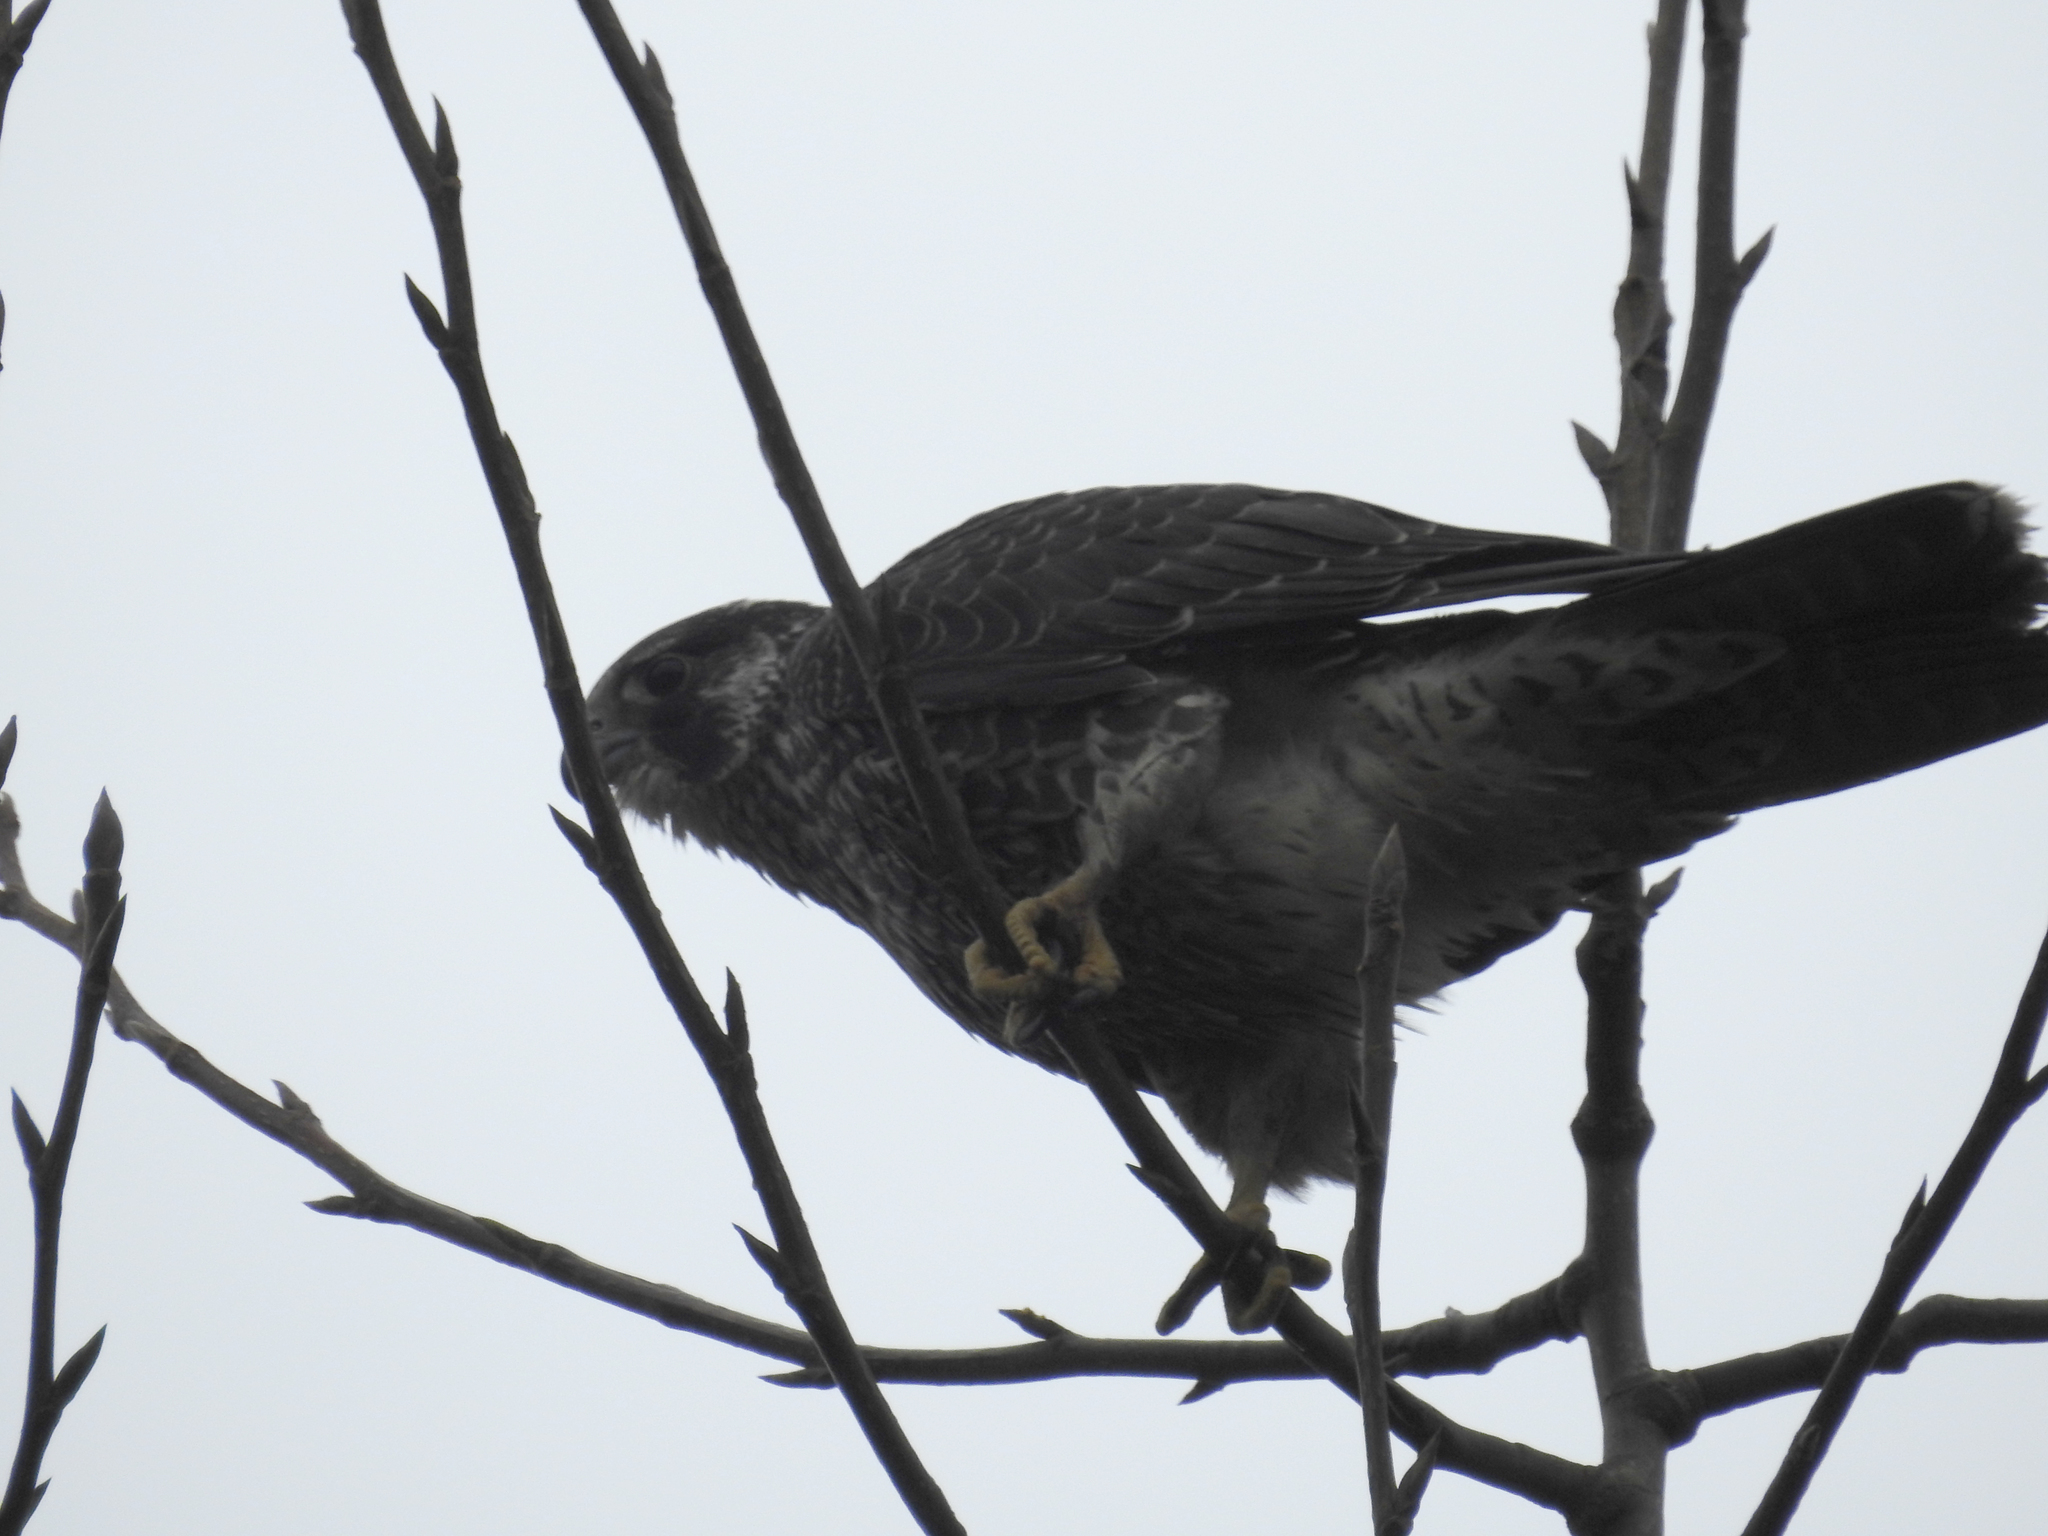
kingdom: Animalia
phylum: Chordata
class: Aves
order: Falconiformes
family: Falconidae
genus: Falco
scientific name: Falco columbarius
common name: Merlin
